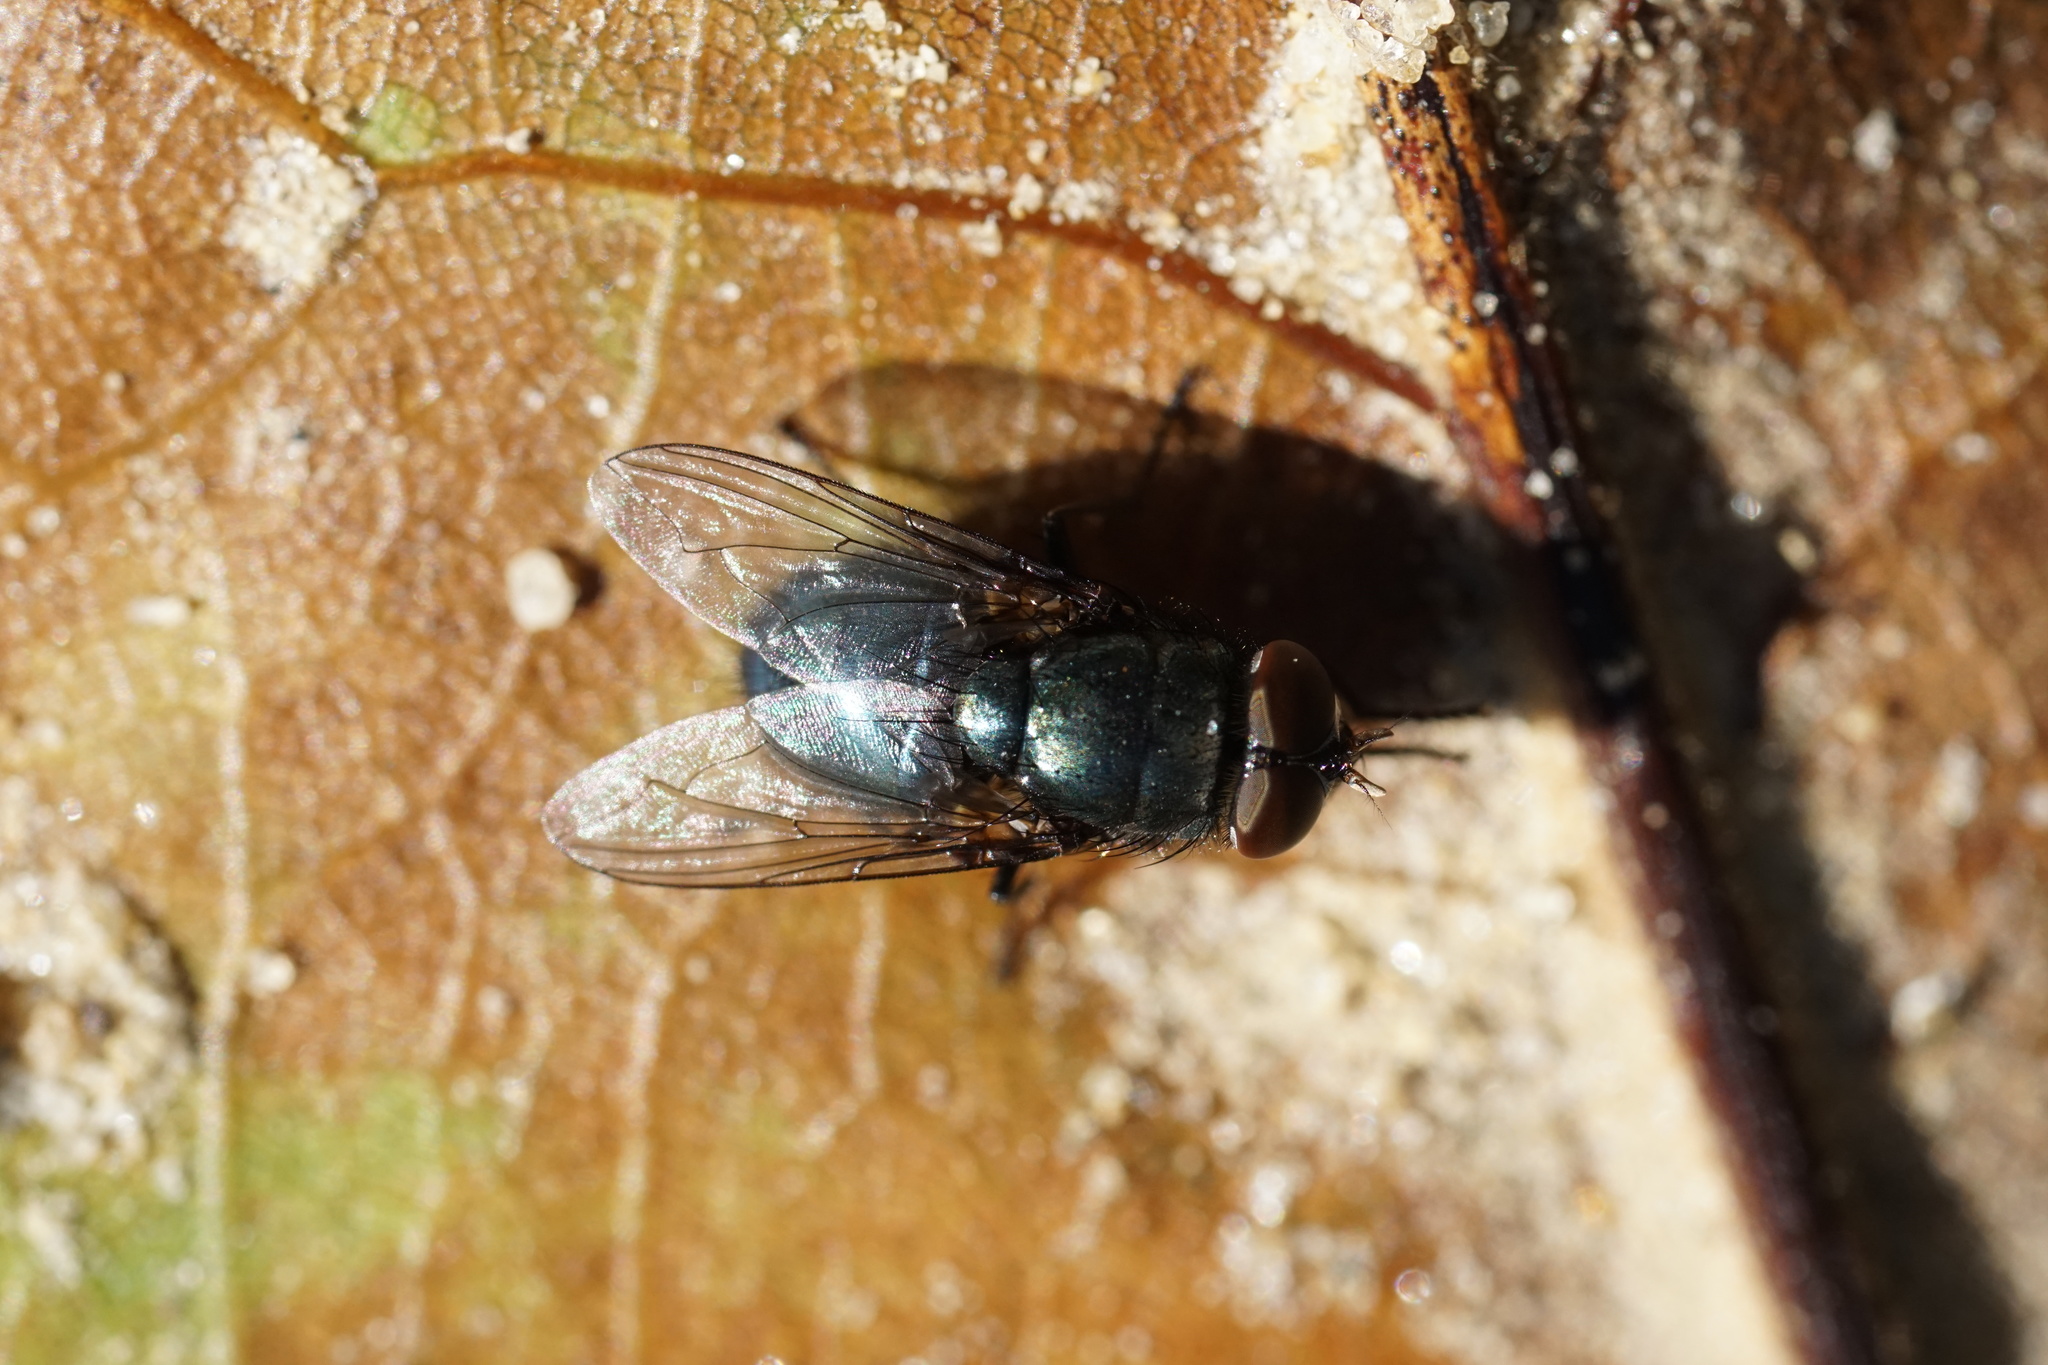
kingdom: Animalia
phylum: Arthropoda
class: Insecta
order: Diptera
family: Calliphoridae
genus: Phormia
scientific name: Phormia regina
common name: Black blow fly
